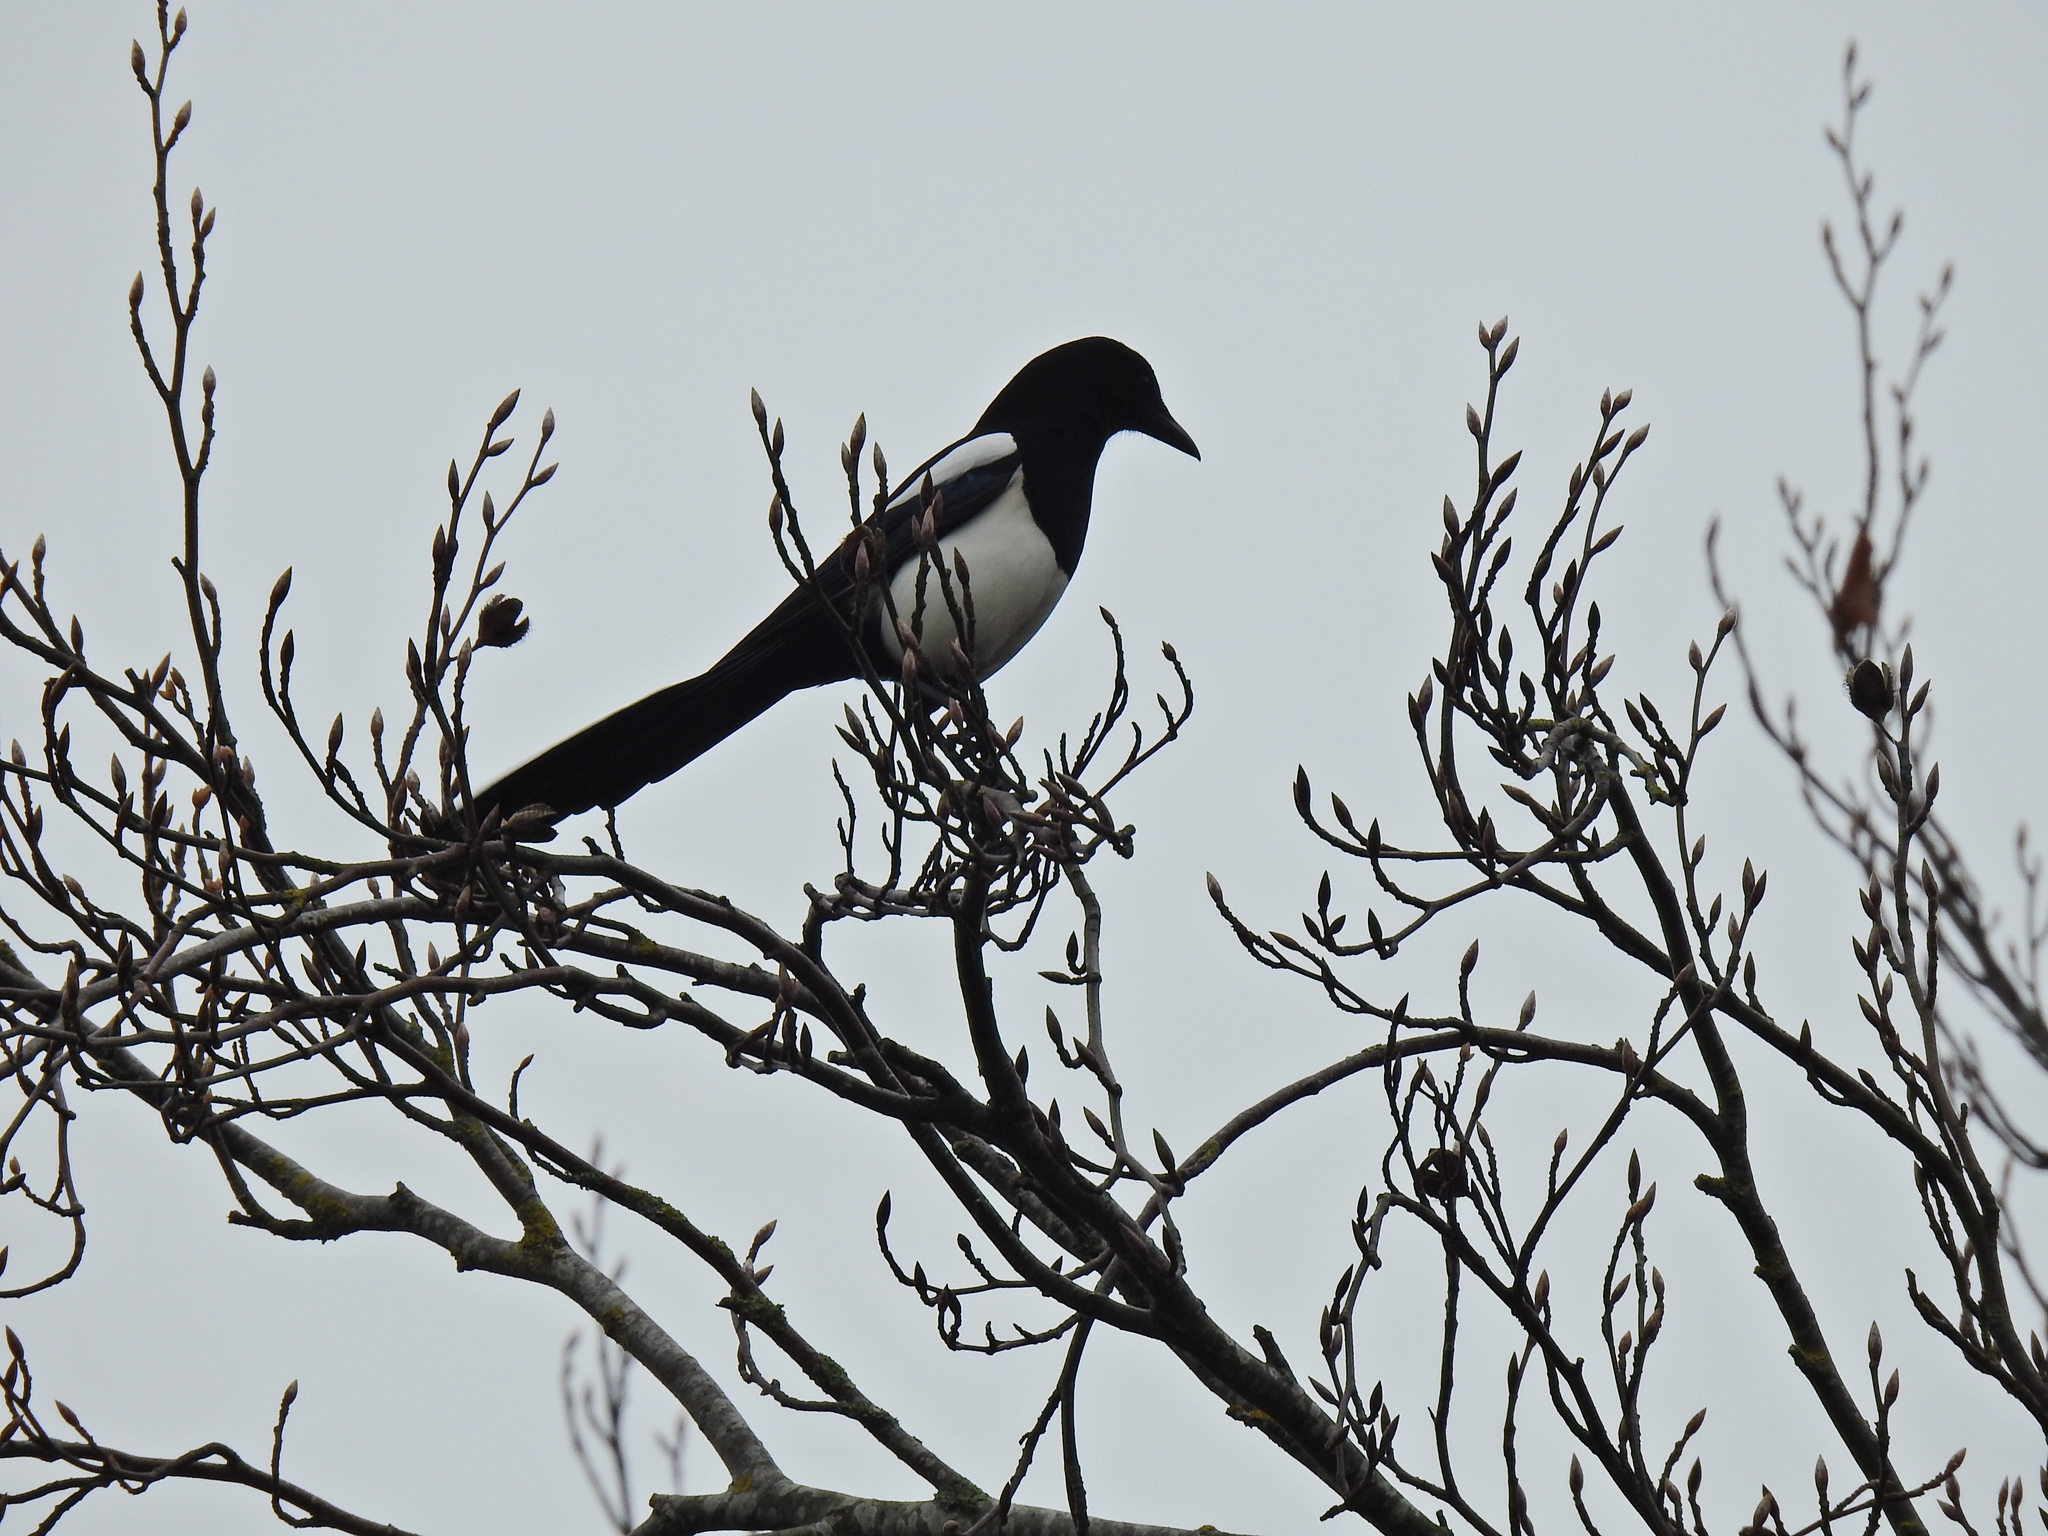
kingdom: Animalia
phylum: Chordata
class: Aves
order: Passeriformes
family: Corvidae
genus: Pica
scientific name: Pica pica
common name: Eurasian magpie
